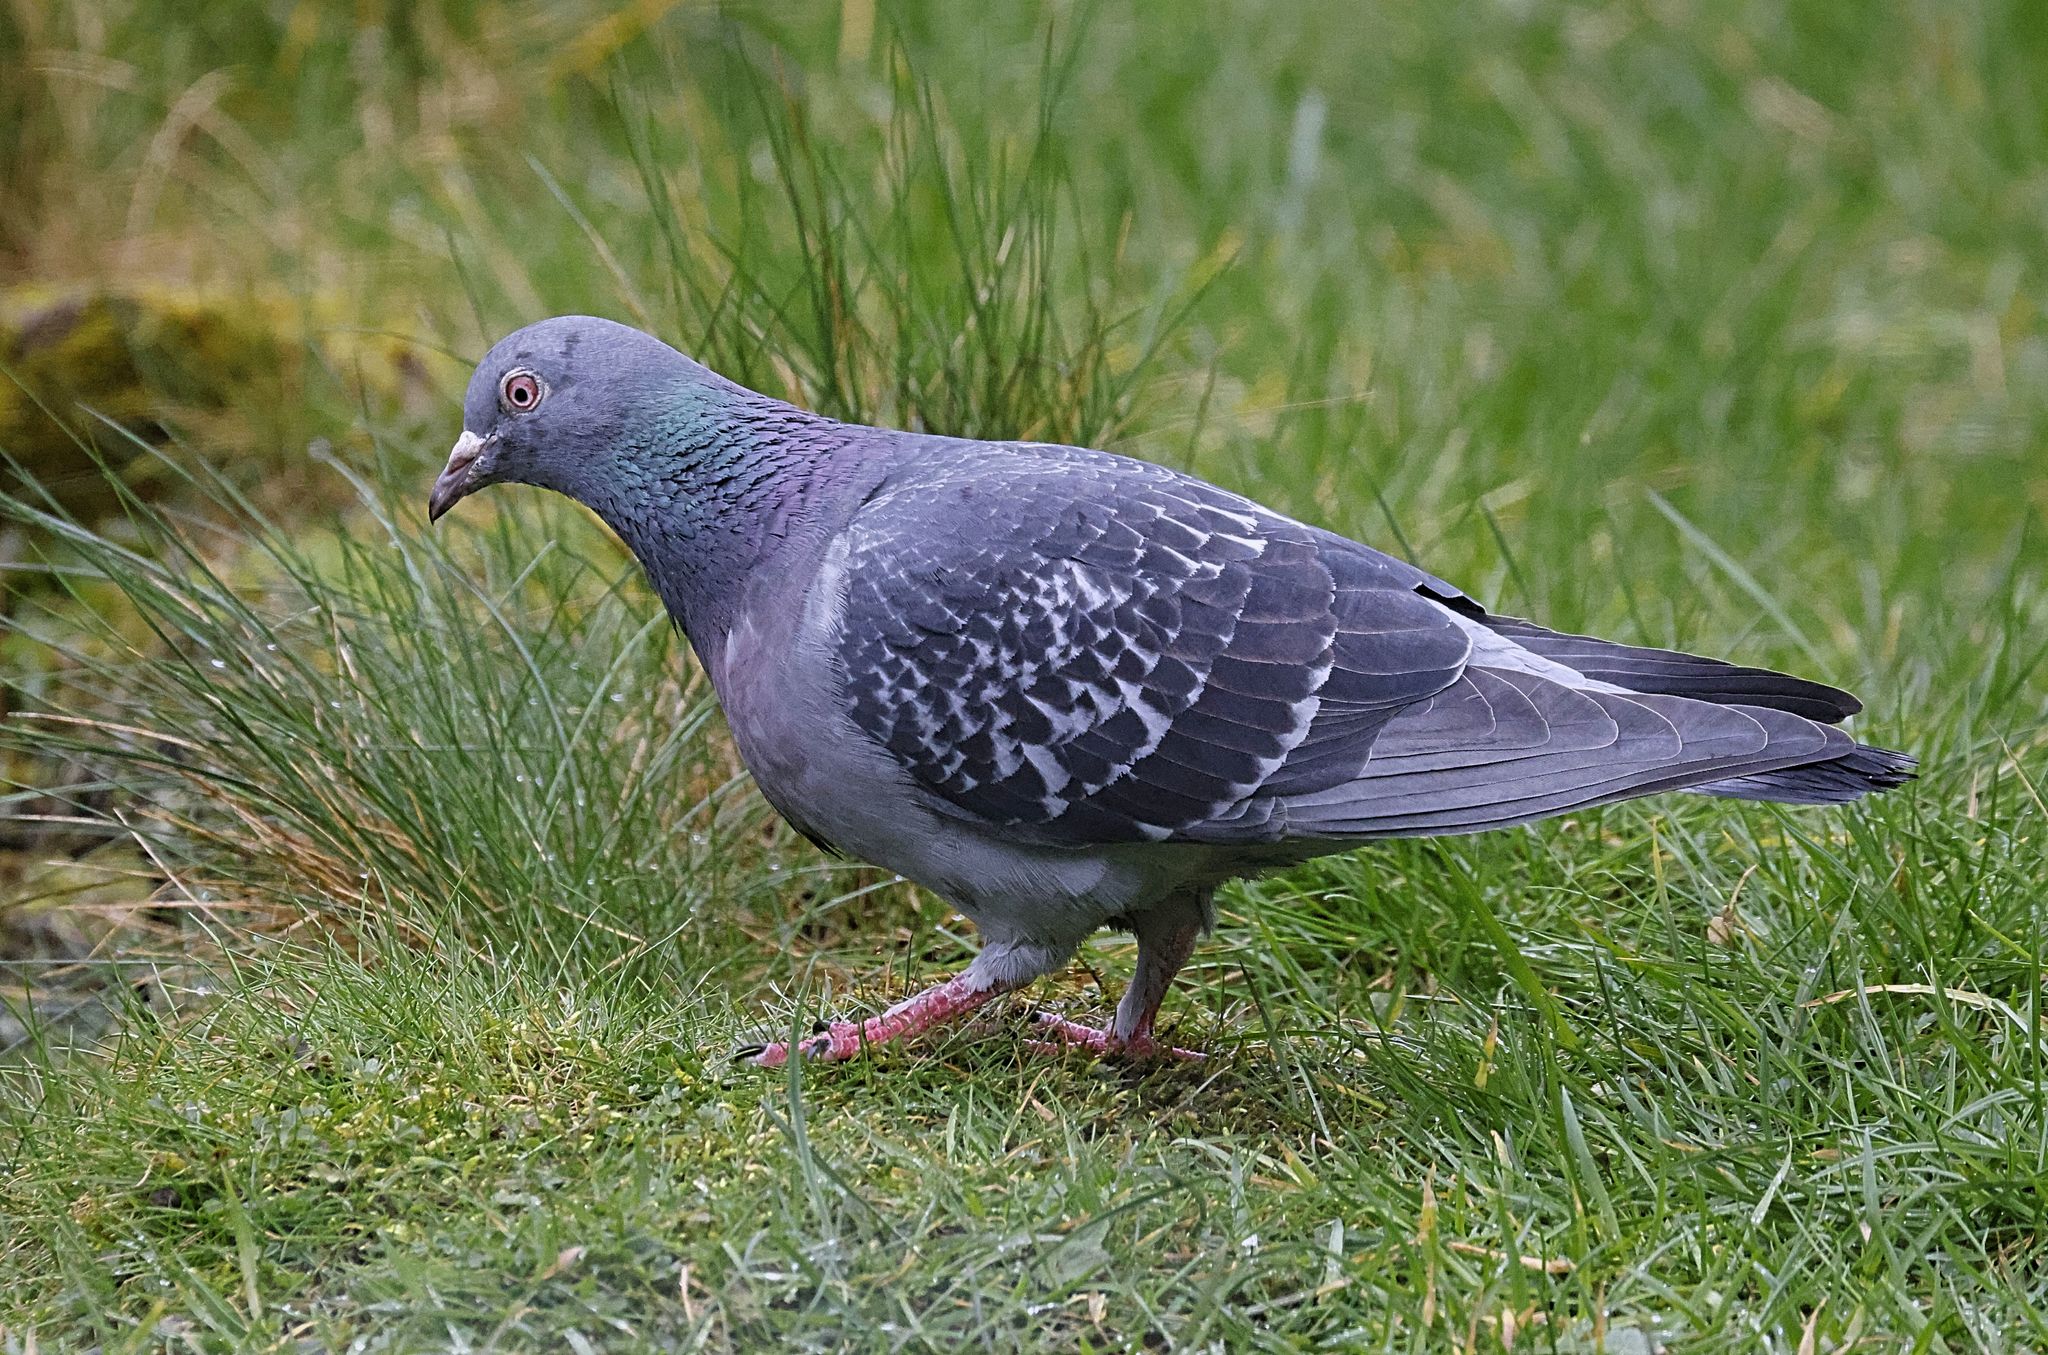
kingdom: Animalia
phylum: Chordata
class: Aves
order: Columbiformes
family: Columbidae
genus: Columba
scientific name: Columba livia
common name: Rock pigeon
